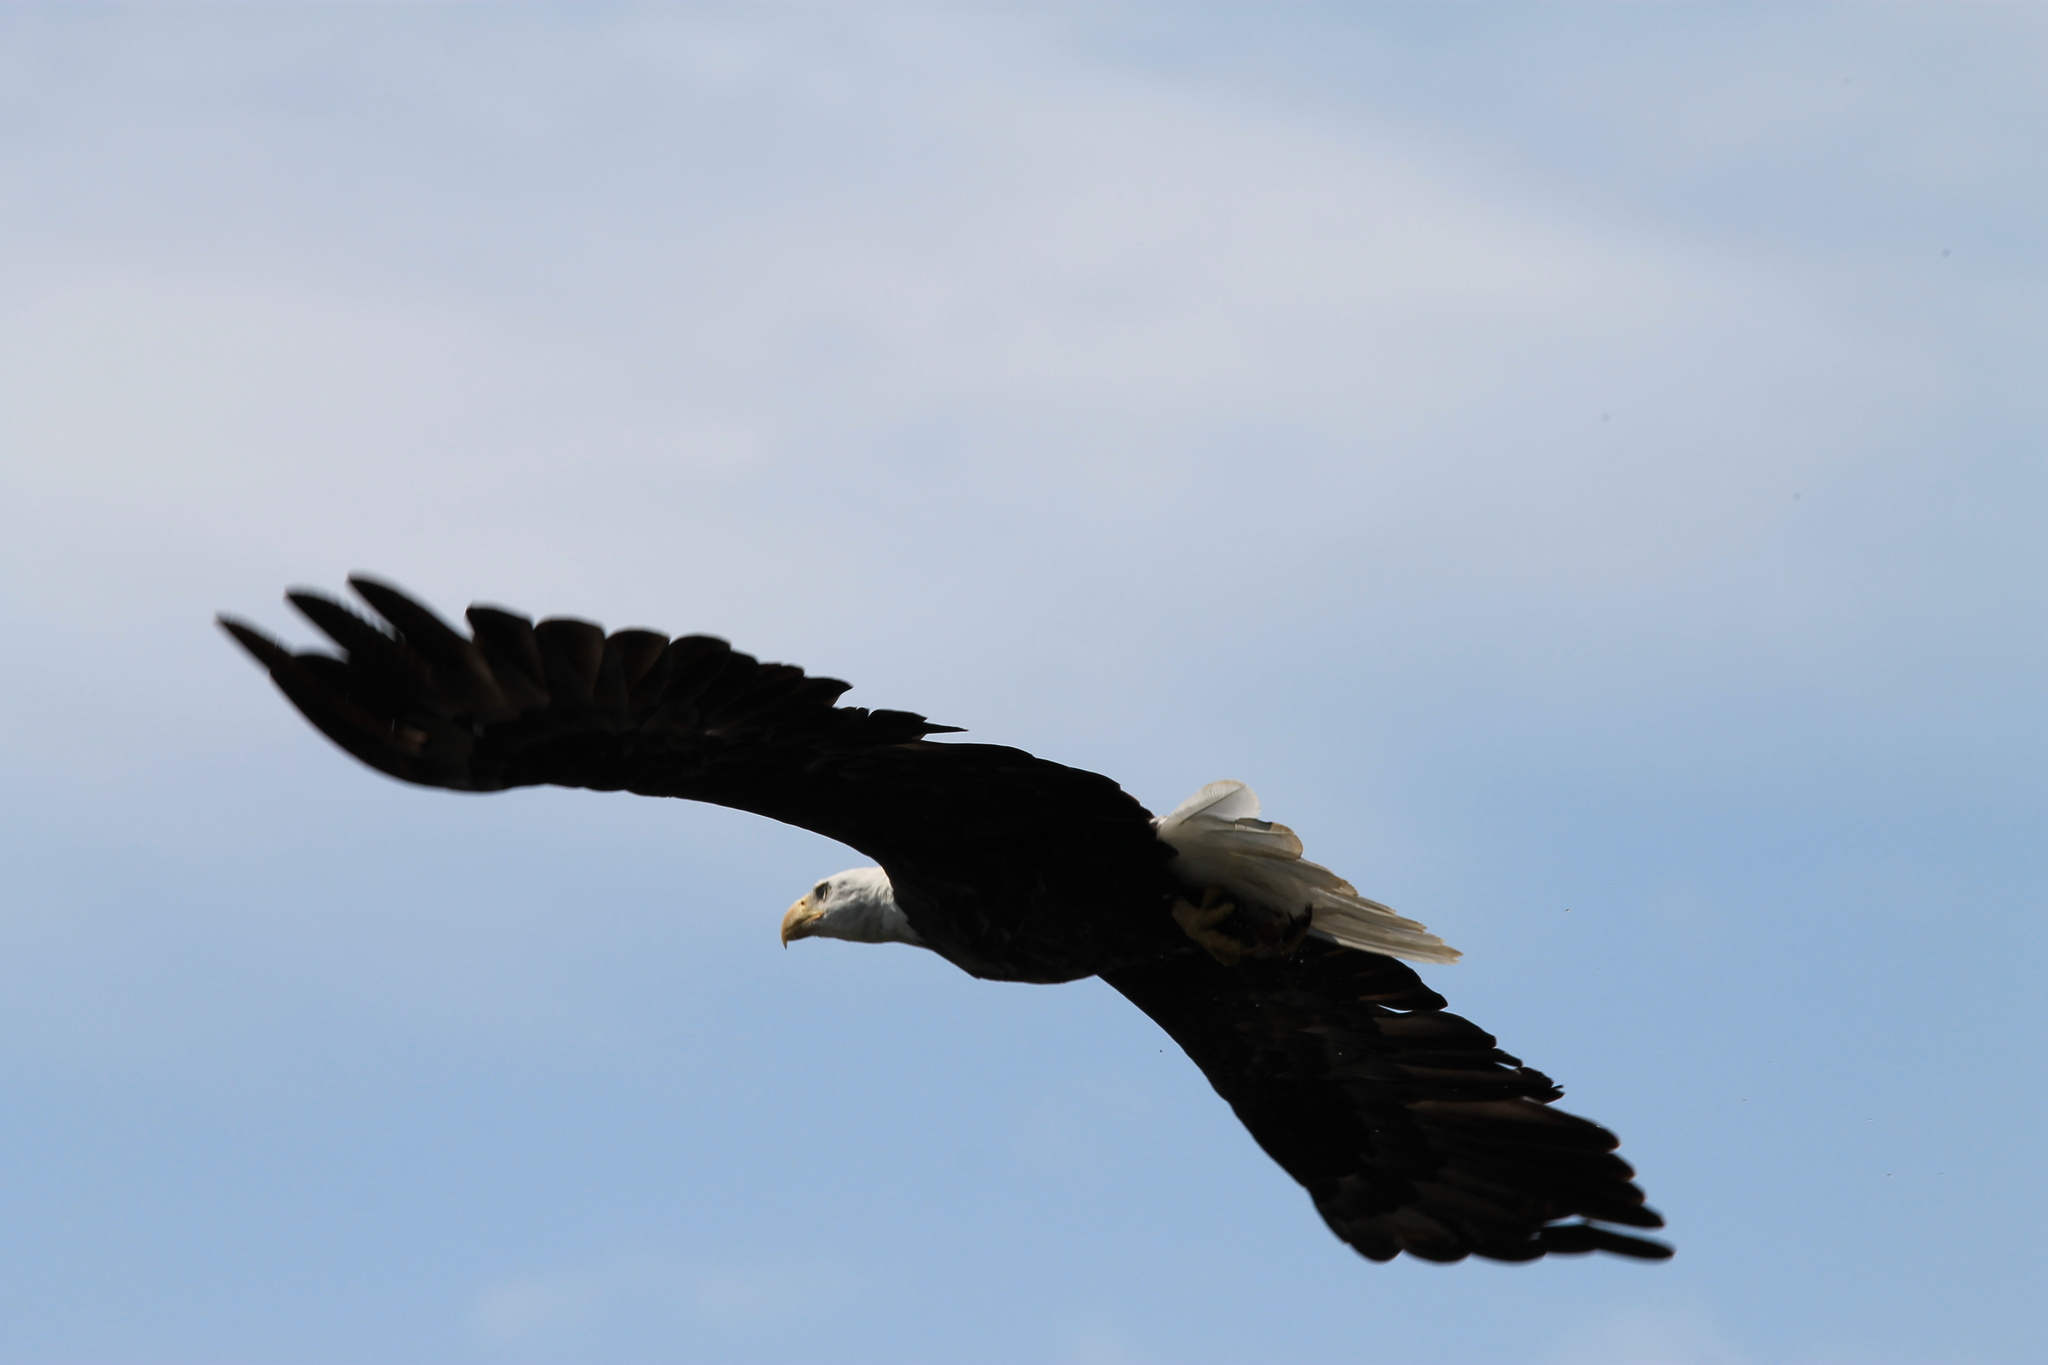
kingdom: Animalia
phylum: Chordata
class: Aves
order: Accipitriformes
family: Accipitridae
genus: Haliaeetus
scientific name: Haliaeetus leucocephalus
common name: Bald eagle
